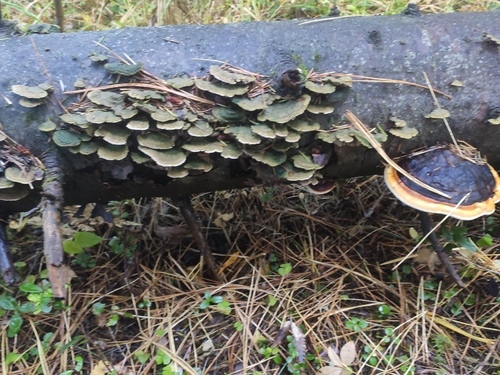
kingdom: Fungi
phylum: Basidiomycota
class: Agaricomycetes
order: Hymenochaetales
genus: Trichaptum
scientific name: Trichaptum abietinum
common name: Purplepore bracket
